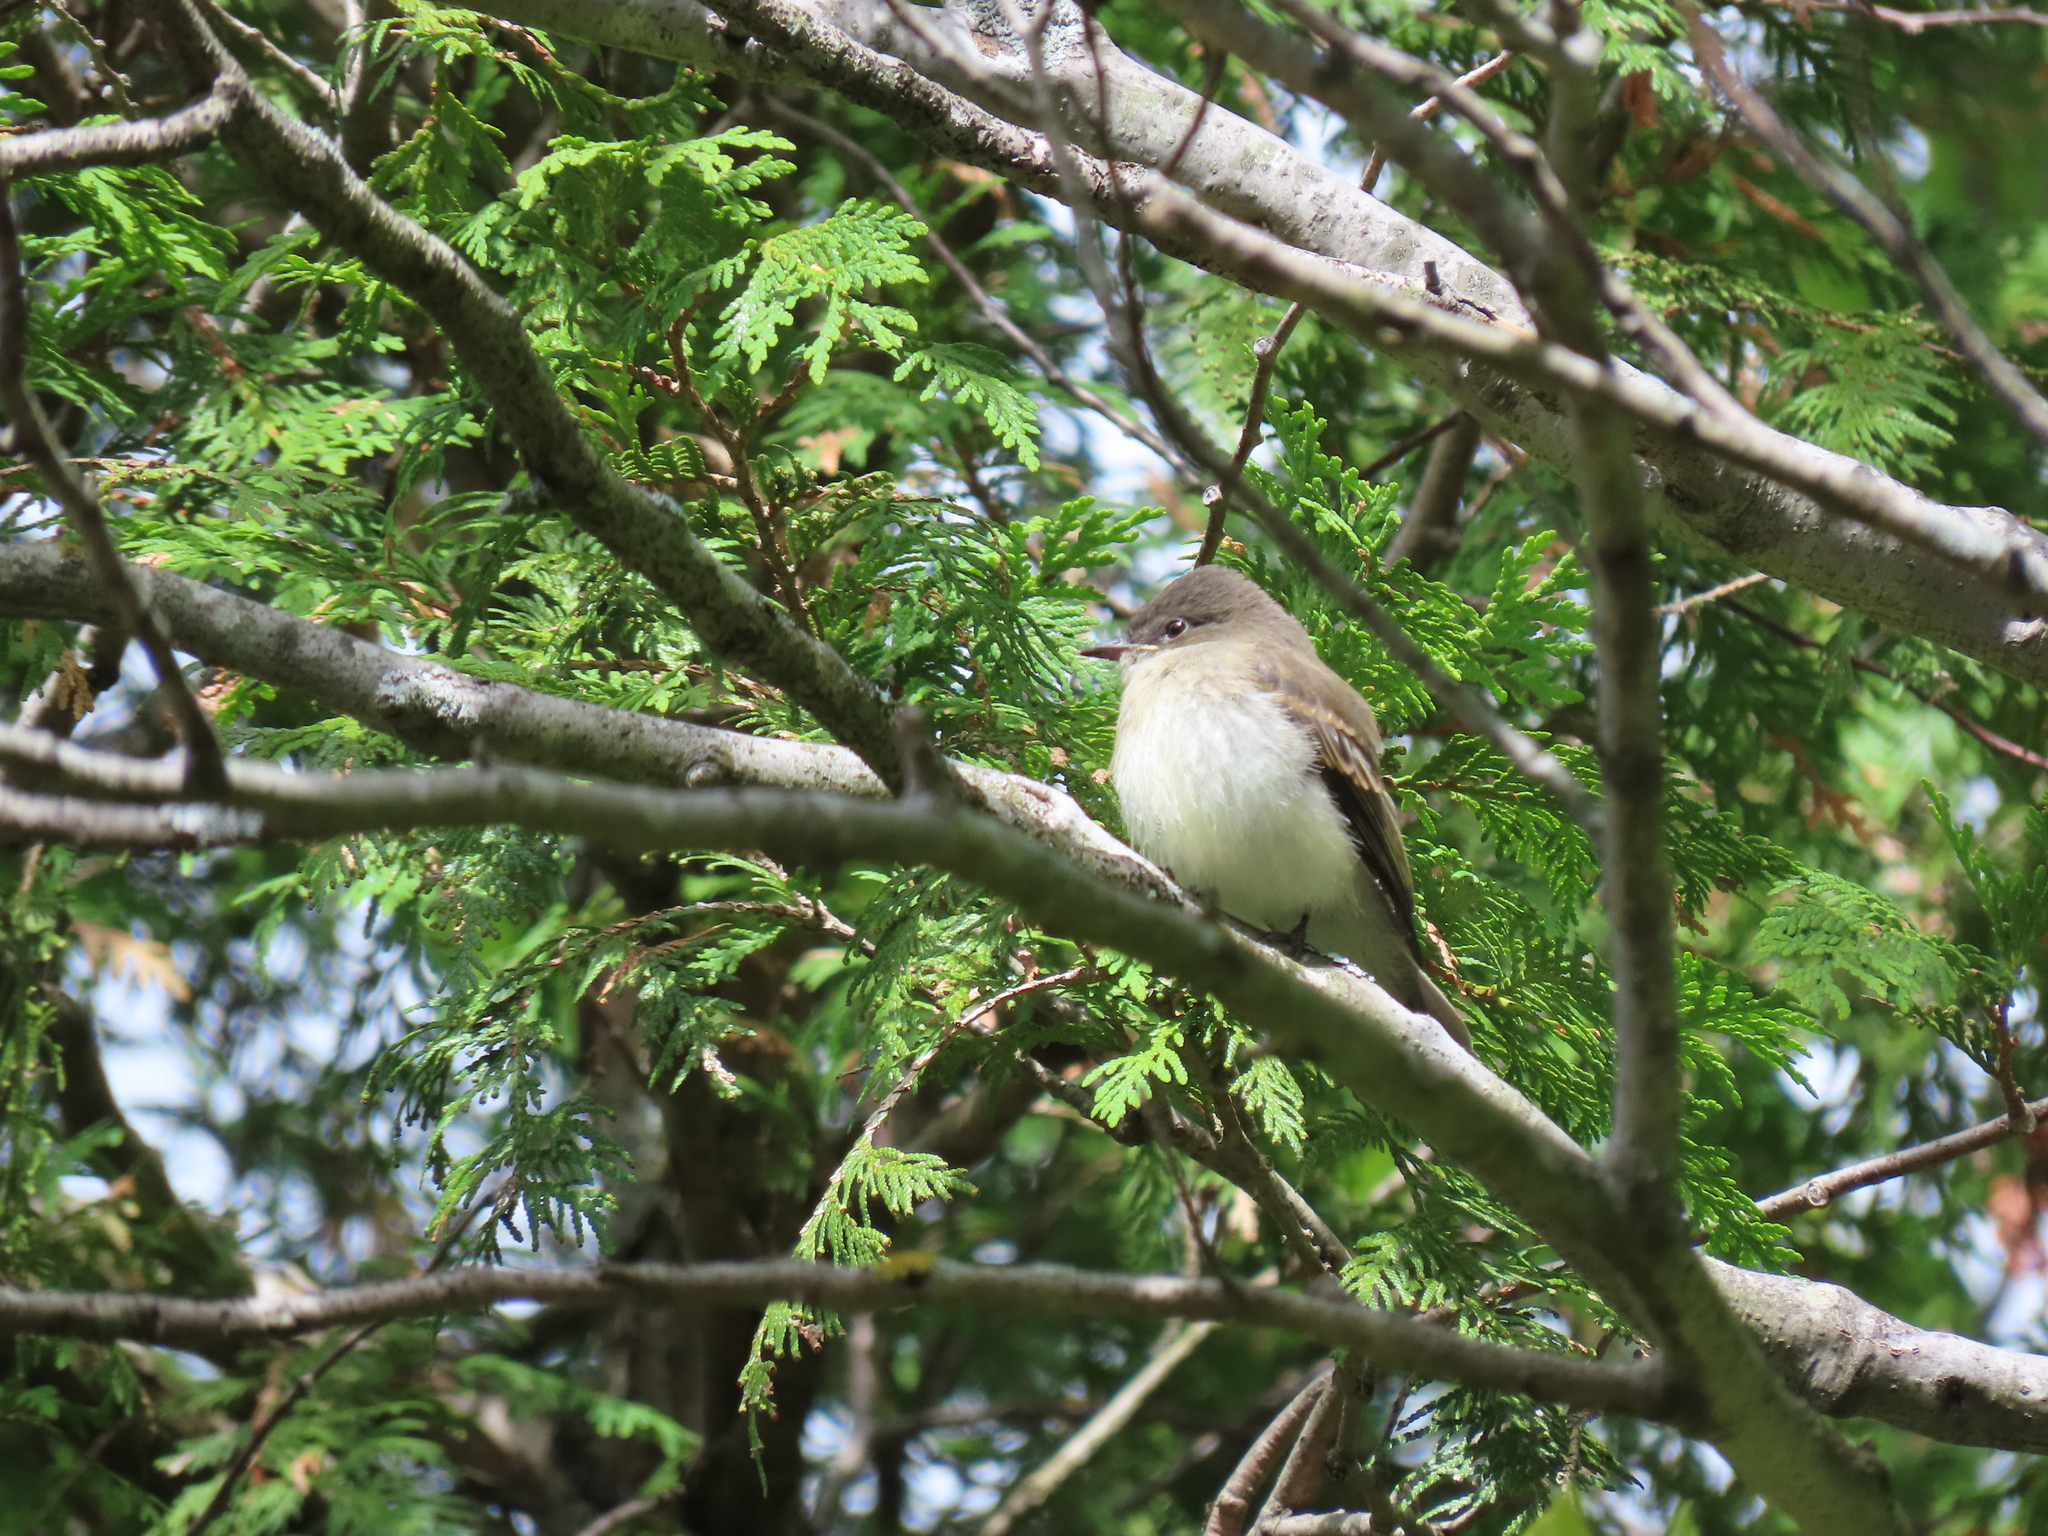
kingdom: Animalia
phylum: Chordata
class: Aves
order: Passeriformes
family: Tyrannidae
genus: Sayornis
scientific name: Sayornis phoebe
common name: Eastern phoebe
